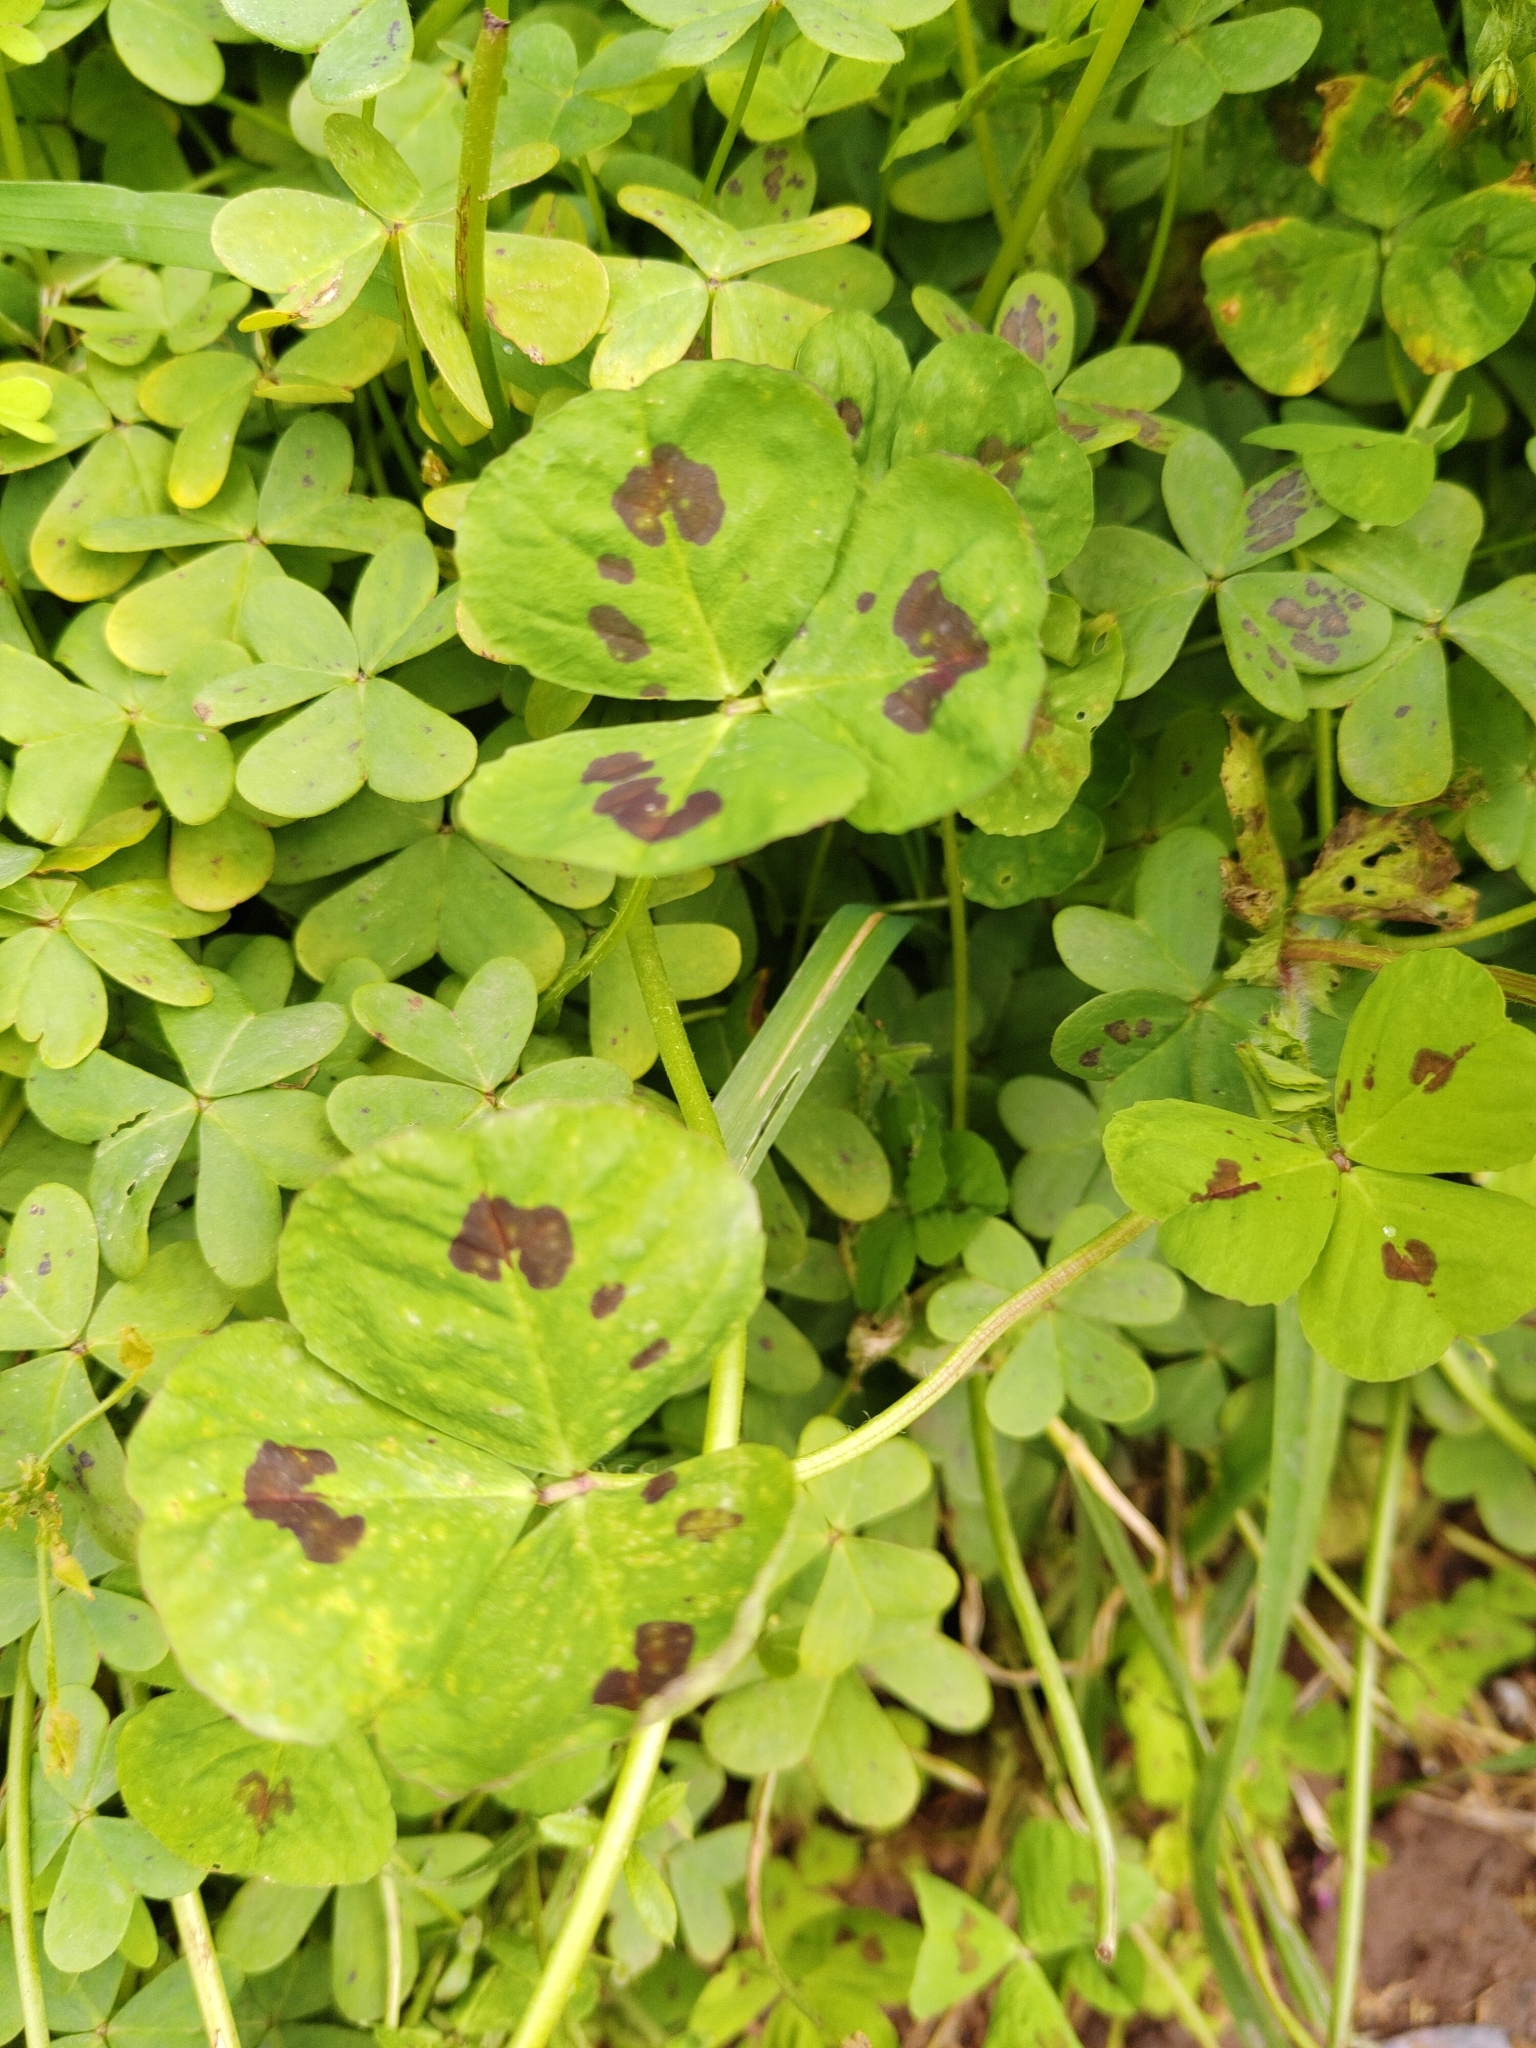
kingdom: Plantae
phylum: Tracheophyta
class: Magnoliopsida
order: Fabales
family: Fabaceae
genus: Medicago
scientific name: Medicago arabica
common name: Spotted medick
